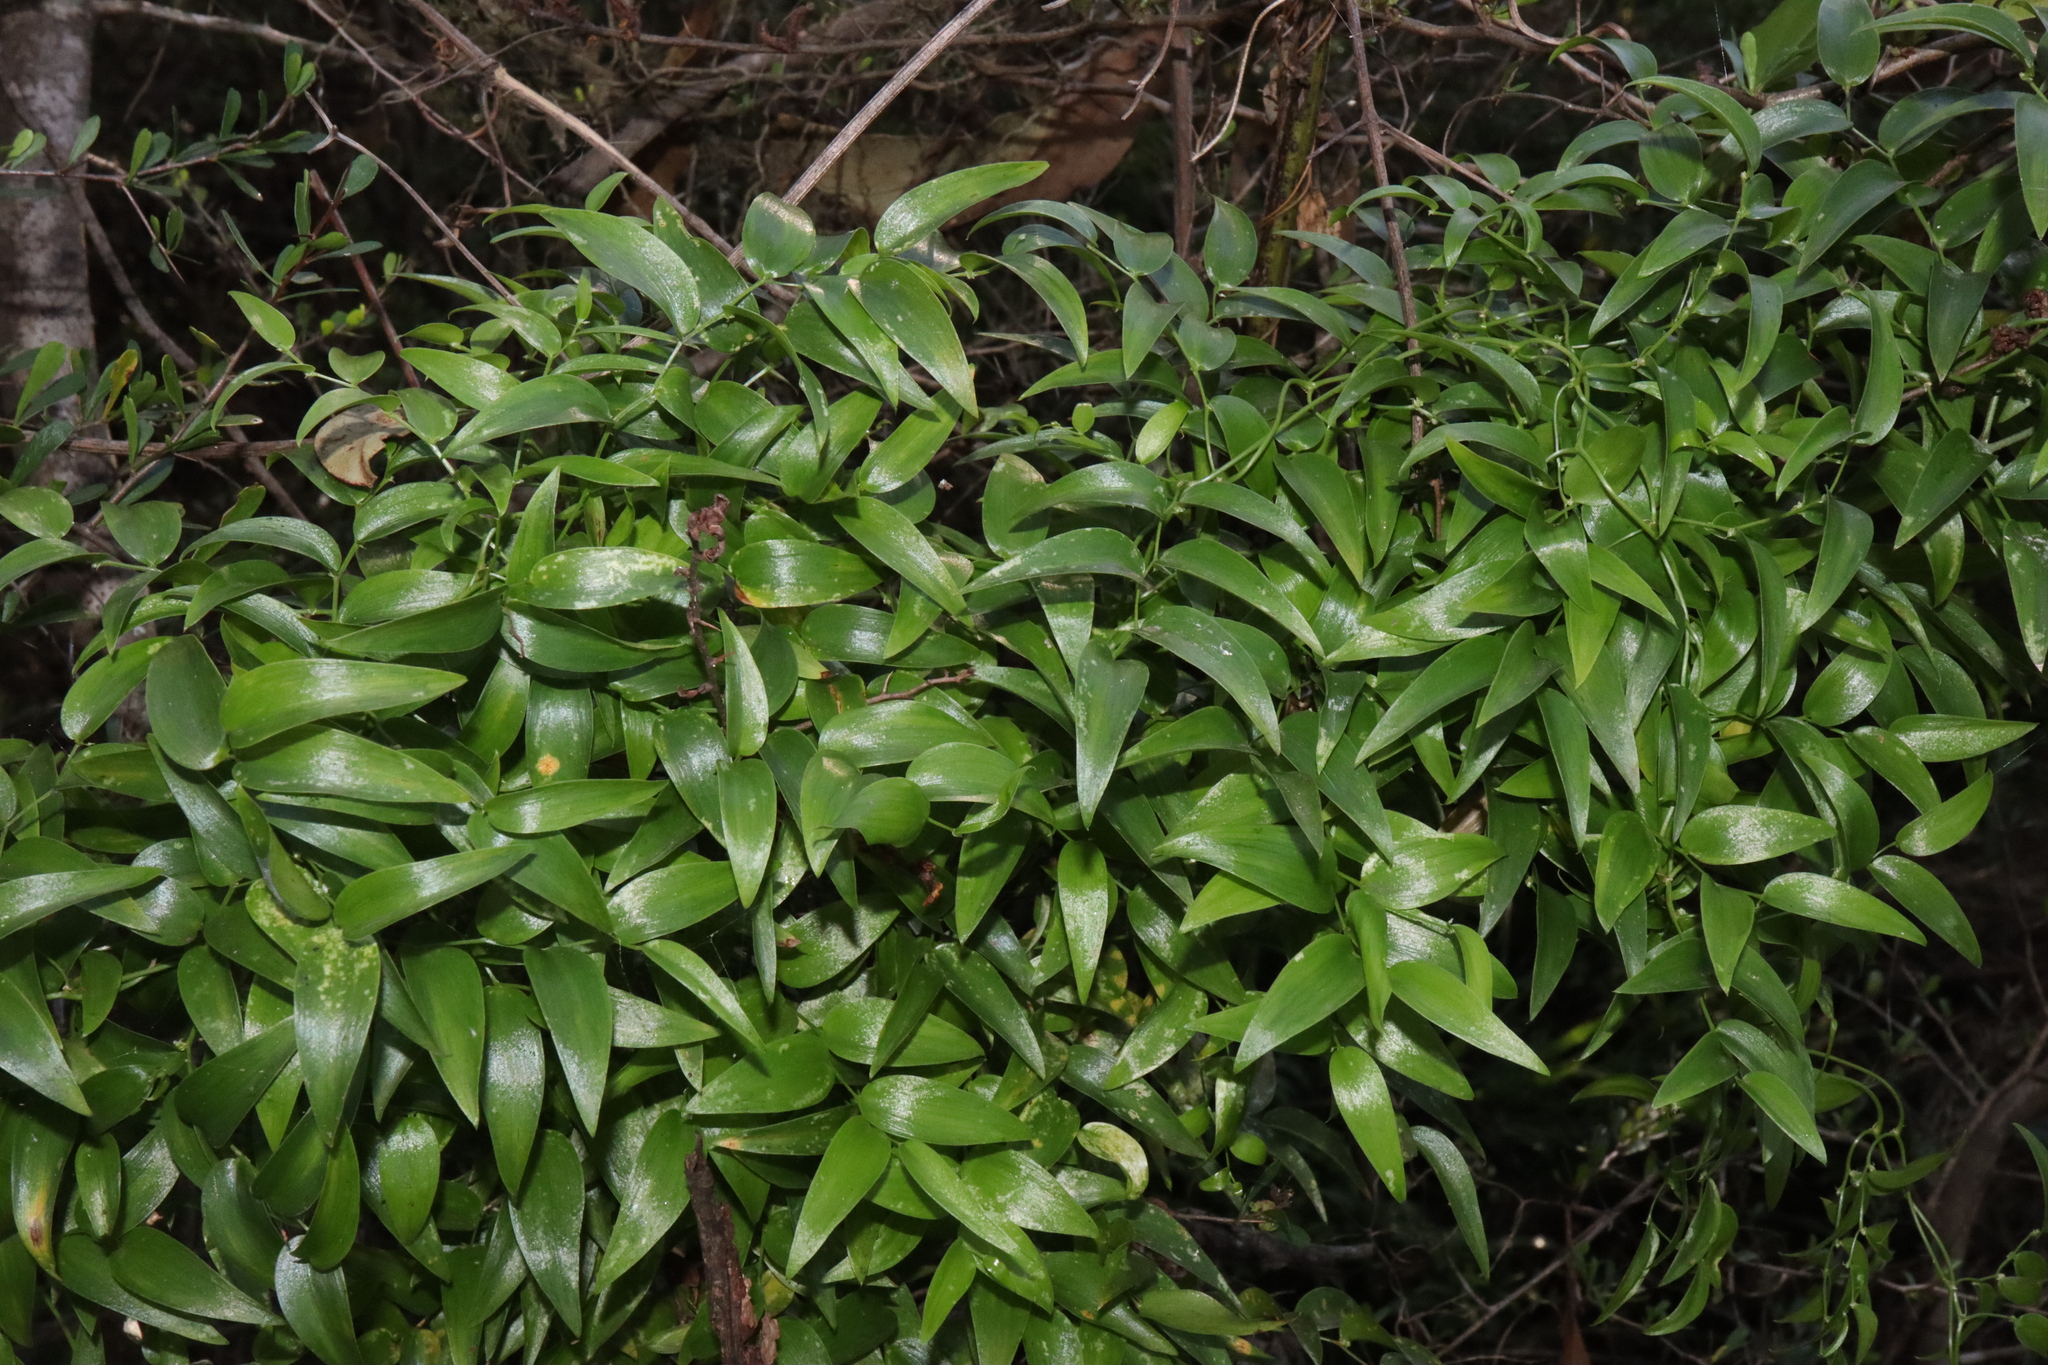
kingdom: Plantae
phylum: Tracheophyta
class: Liliopsida
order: Asparagales
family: Asparagaceae
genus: Asparagus
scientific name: Asparagus asparagoides
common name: African asparagus fern
